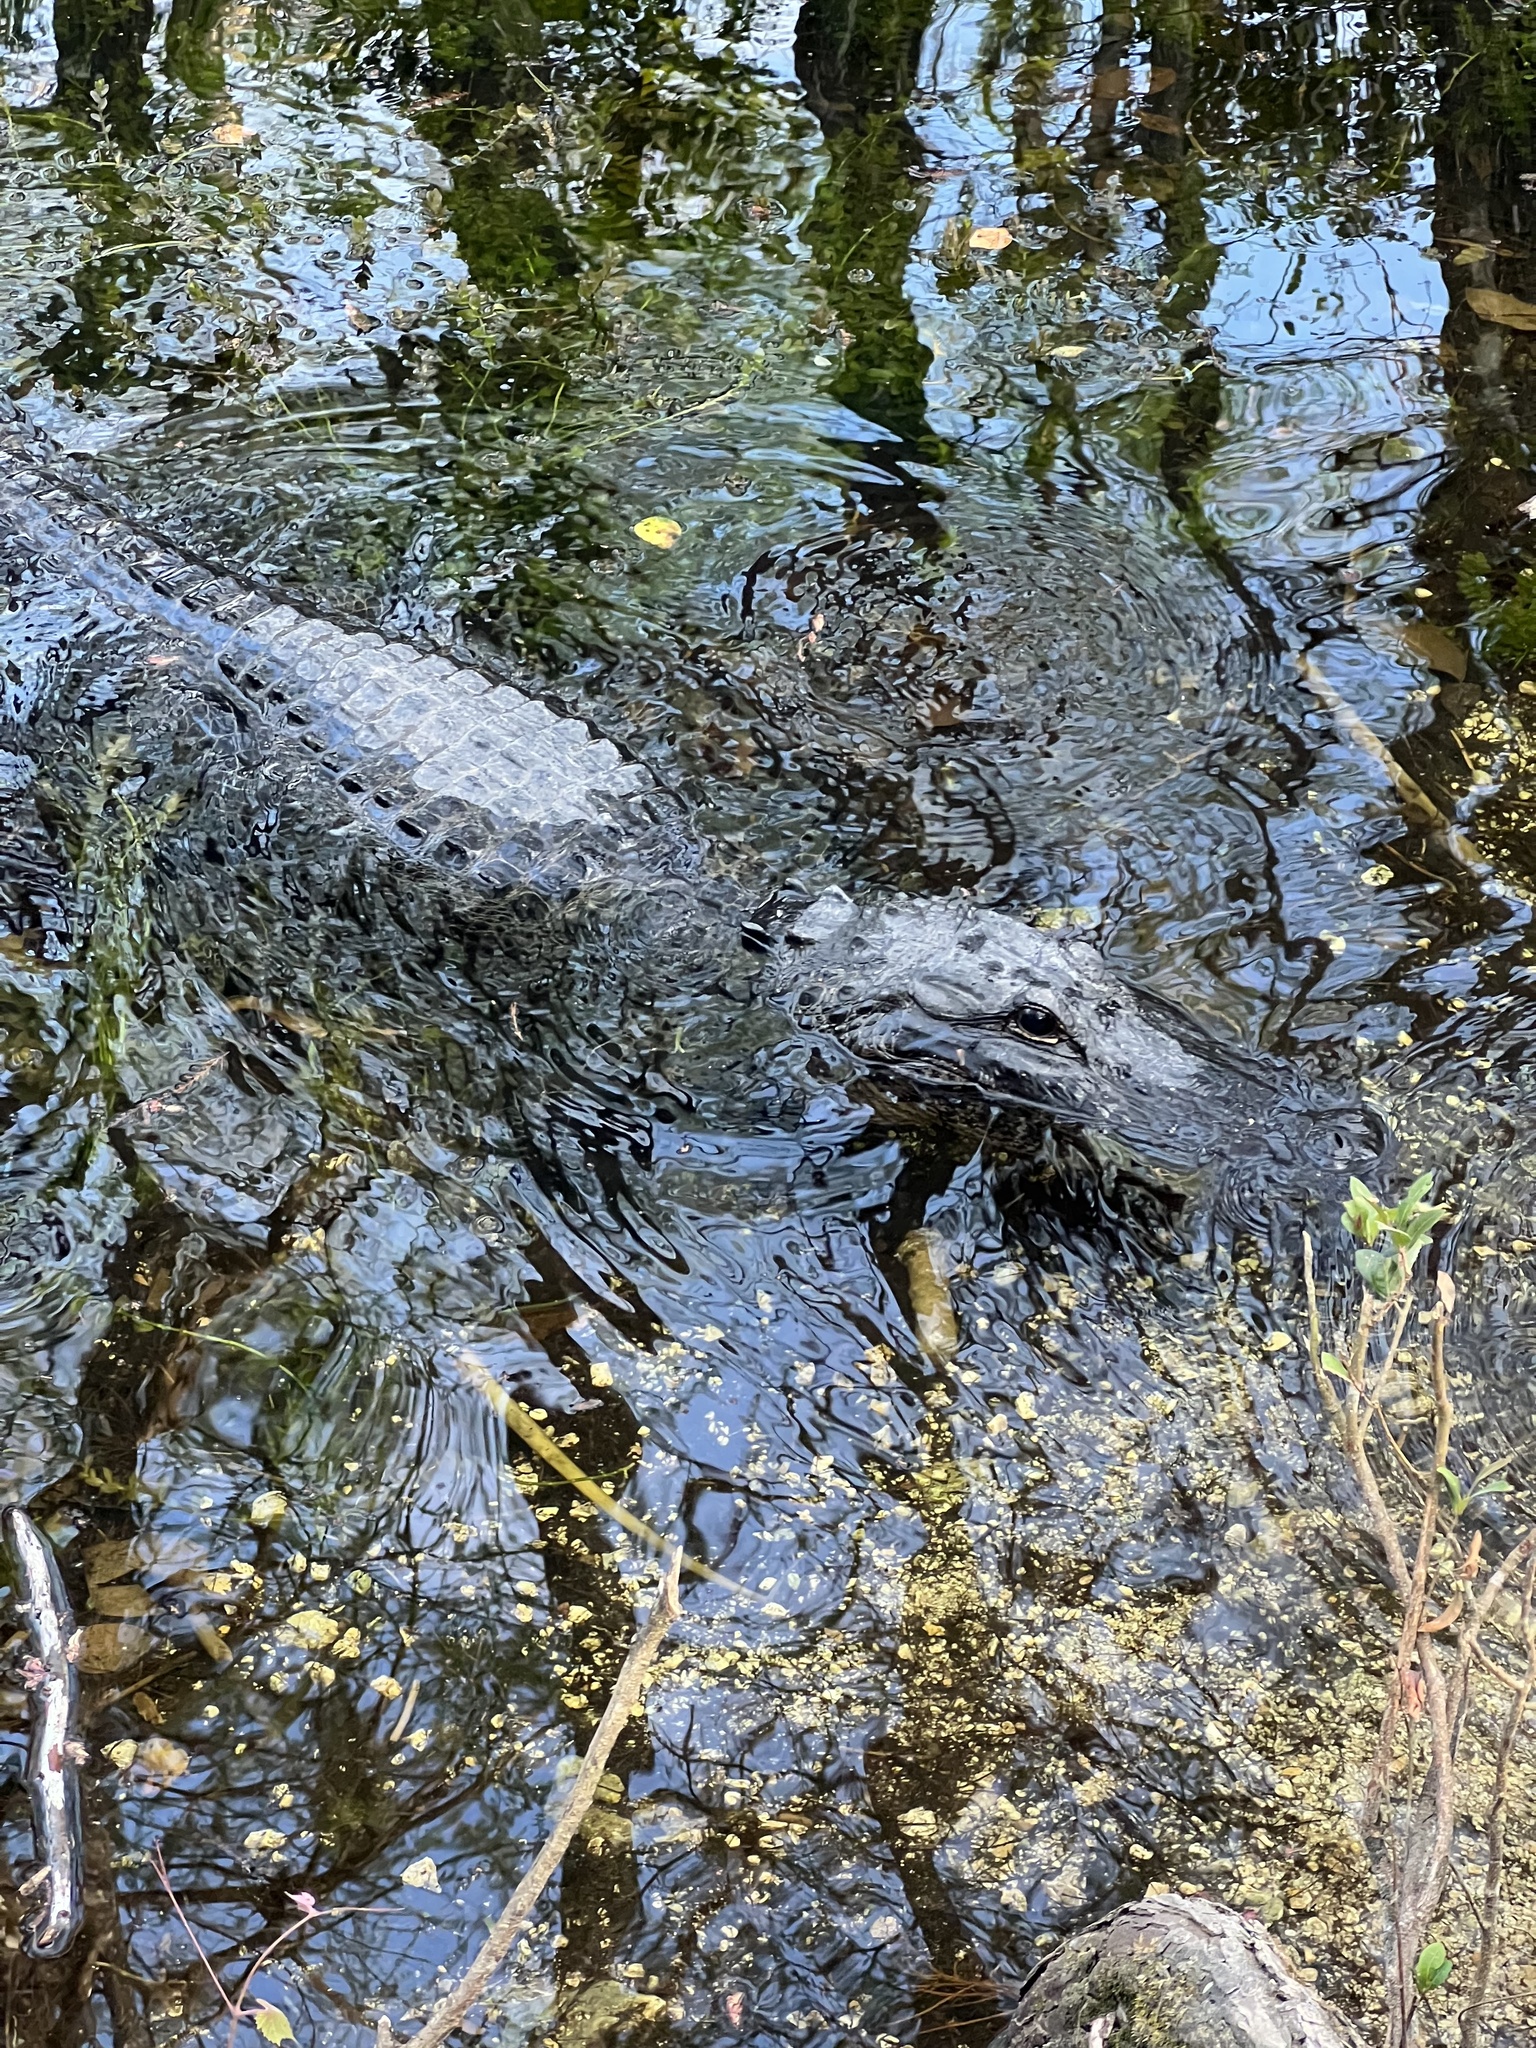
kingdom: Animalia
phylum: Chordata
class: Crocodylia
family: Alligatoridae
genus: Alligator
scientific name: Alligator mississippiensis
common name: American alligator
